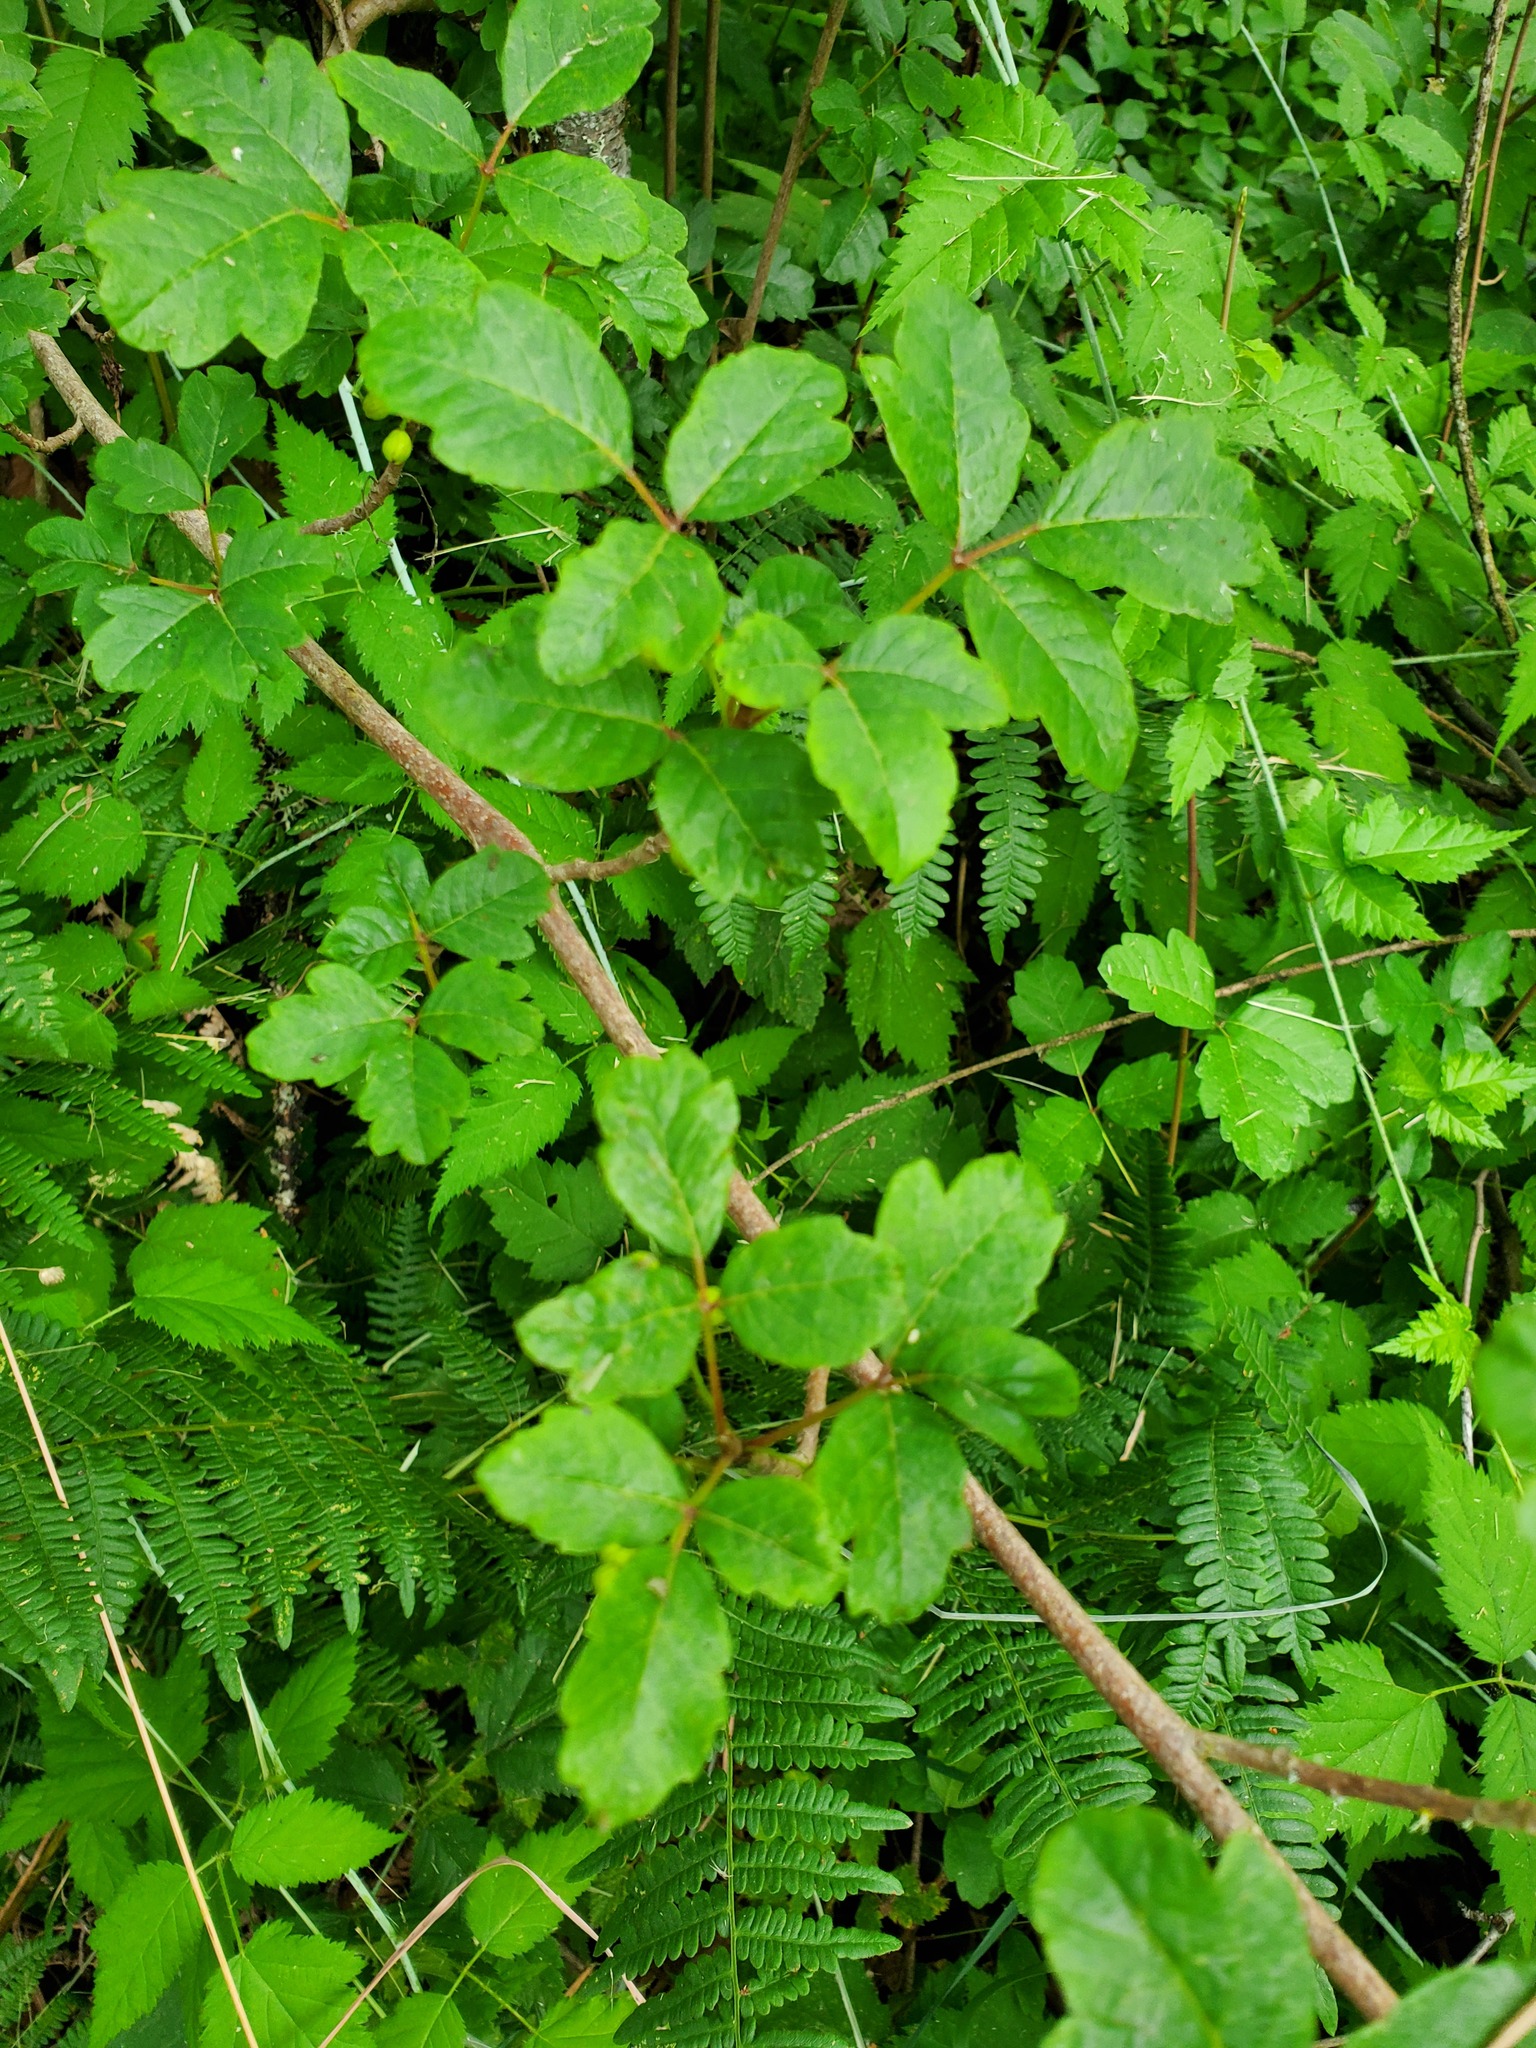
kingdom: Plantae
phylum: Tracheophyta
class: Magnoliopsida
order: Sapindales
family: Anacardiaceae
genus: Toxicodendron
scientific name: Toxicodendron diversilobum
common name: Pacific poison-oak
